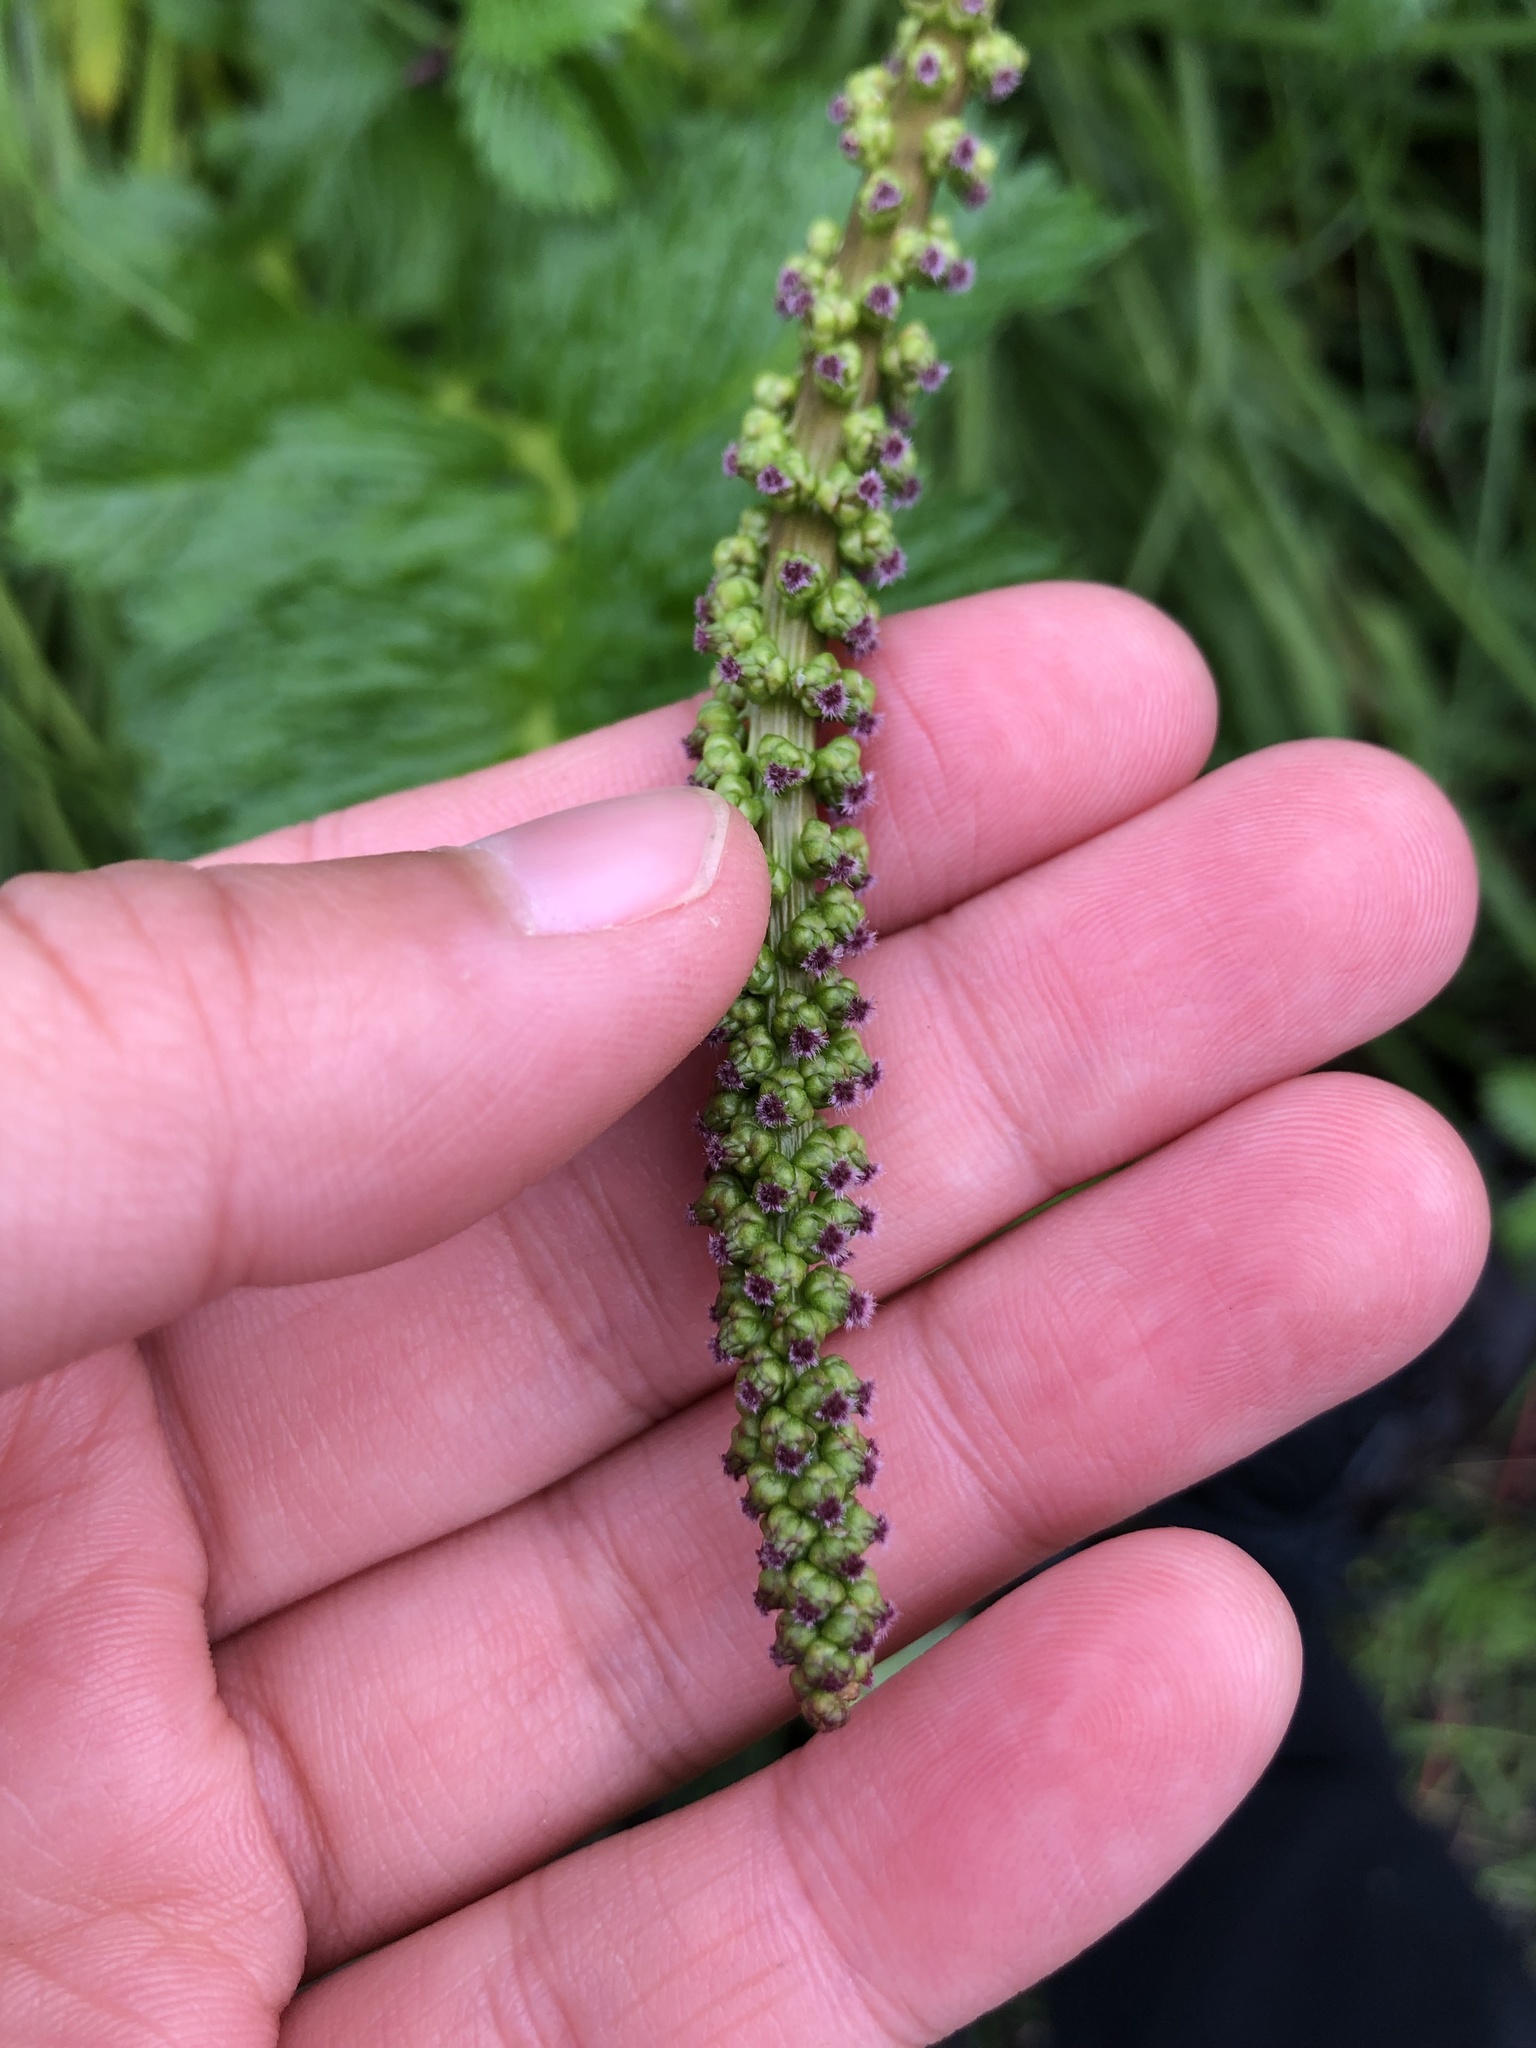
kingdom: Plantae
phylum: Tracheophyta
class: Liliopsida
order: Alismatales
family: Juncaginaceae
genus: Triglochin
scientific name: Triglochin maritima
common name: Sea arrowgrass
